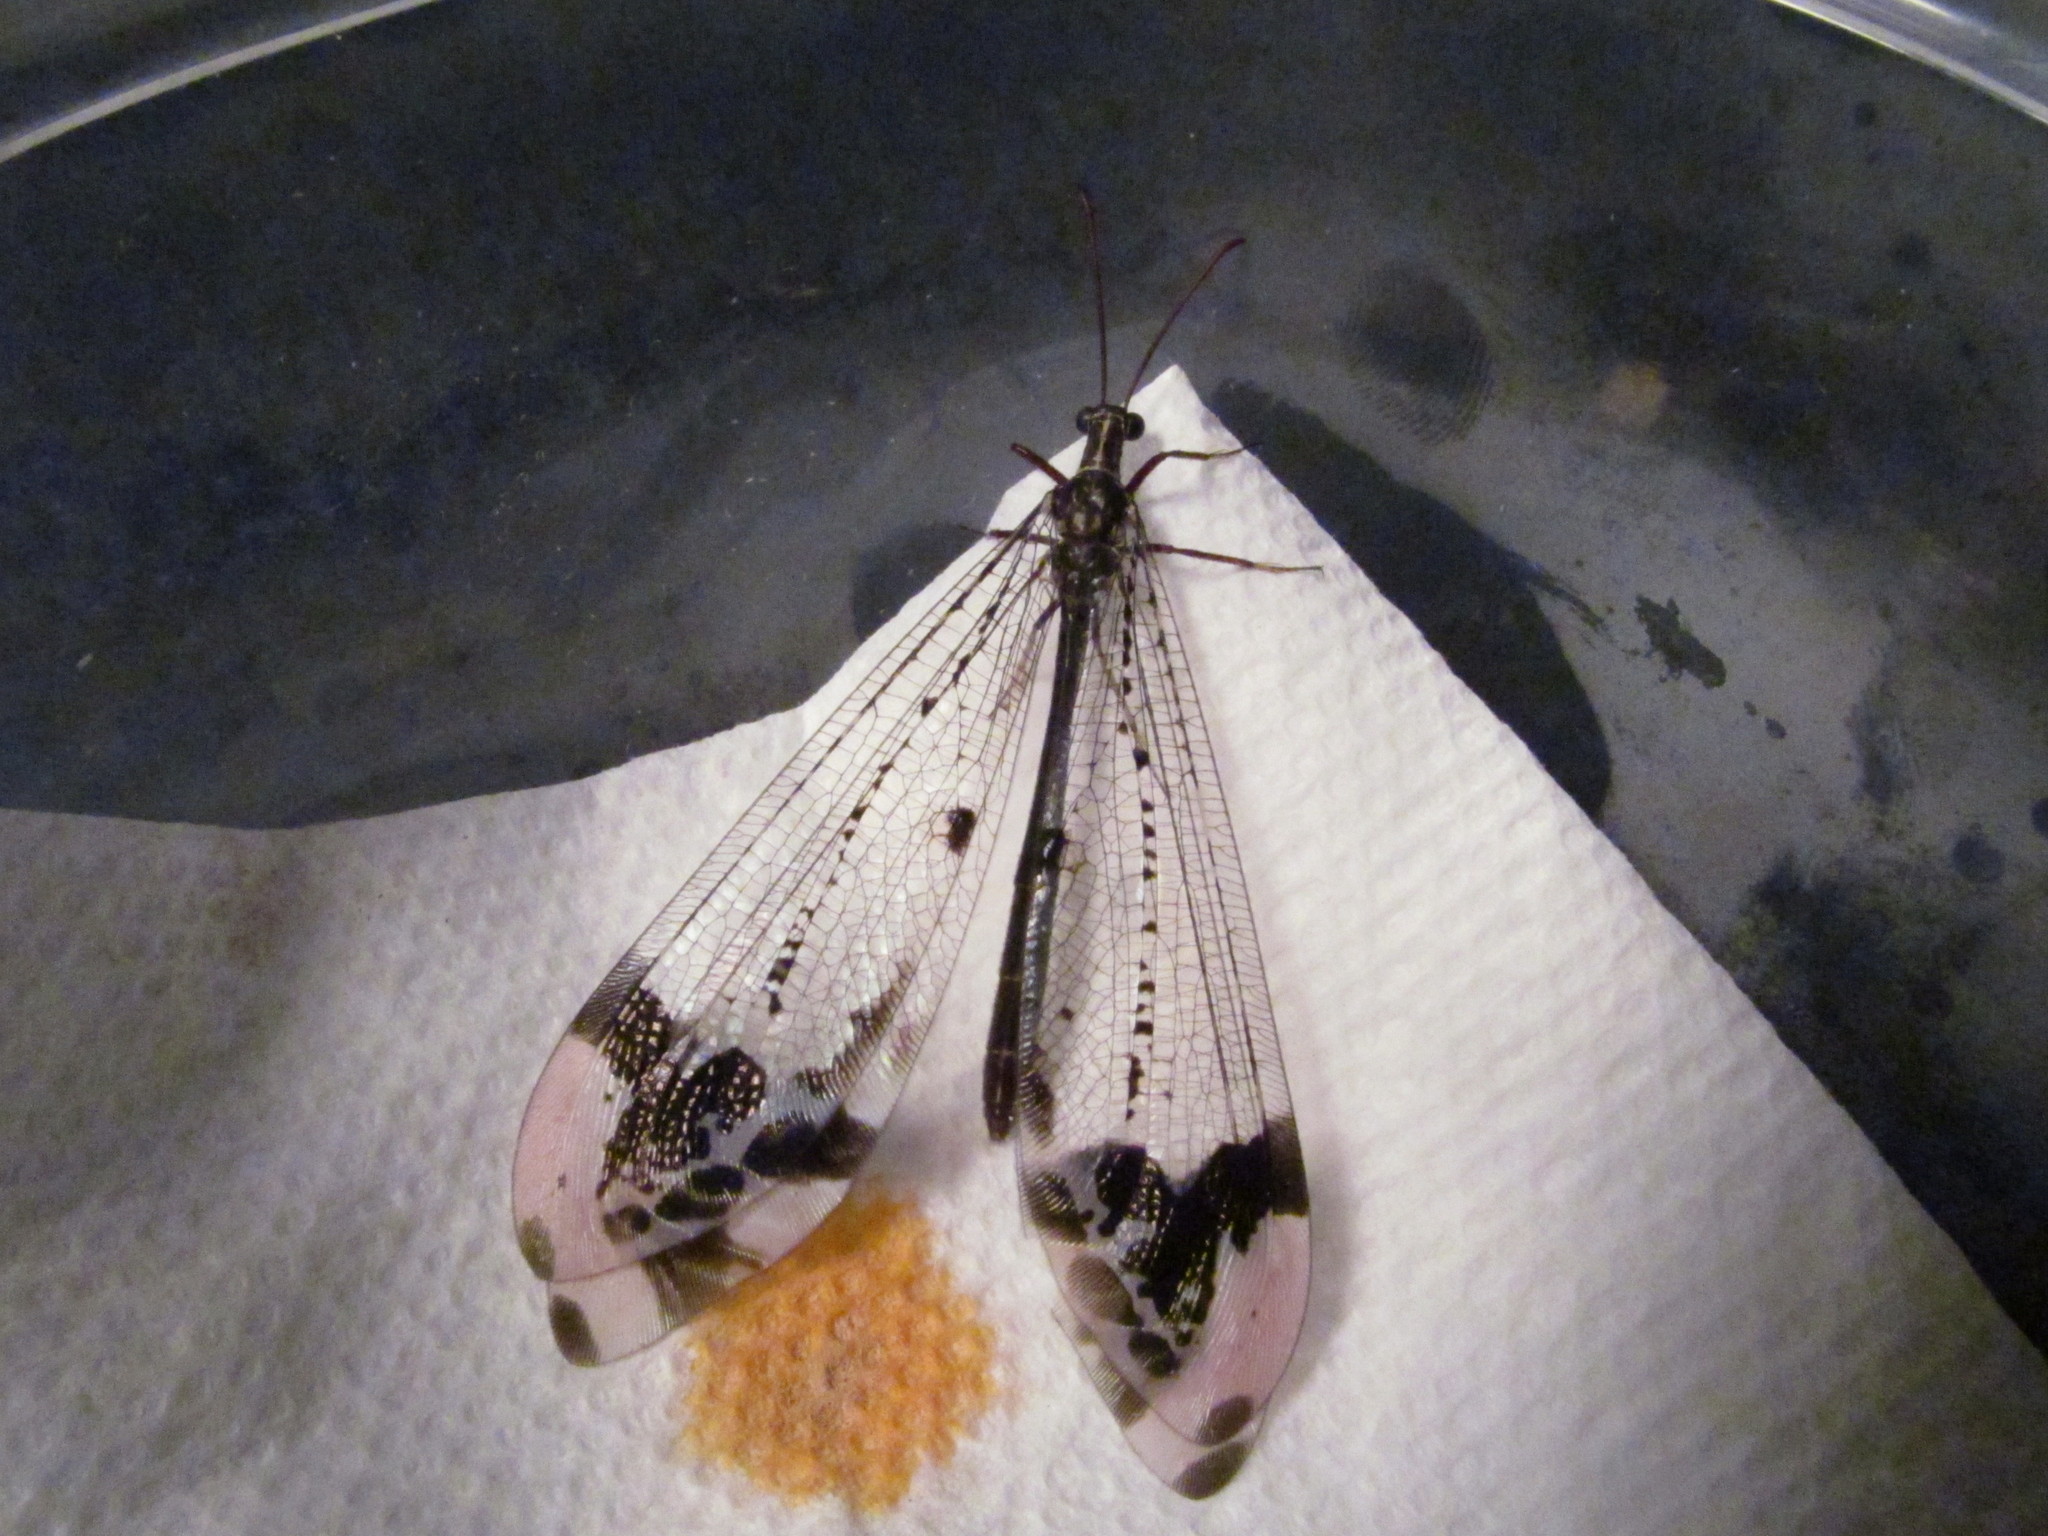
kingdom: Animalia
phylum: Arthropoda
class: Insecta
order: Neuroptera
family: Myrmeleontidae
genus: Glenurus
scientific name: Glenurus gratus
